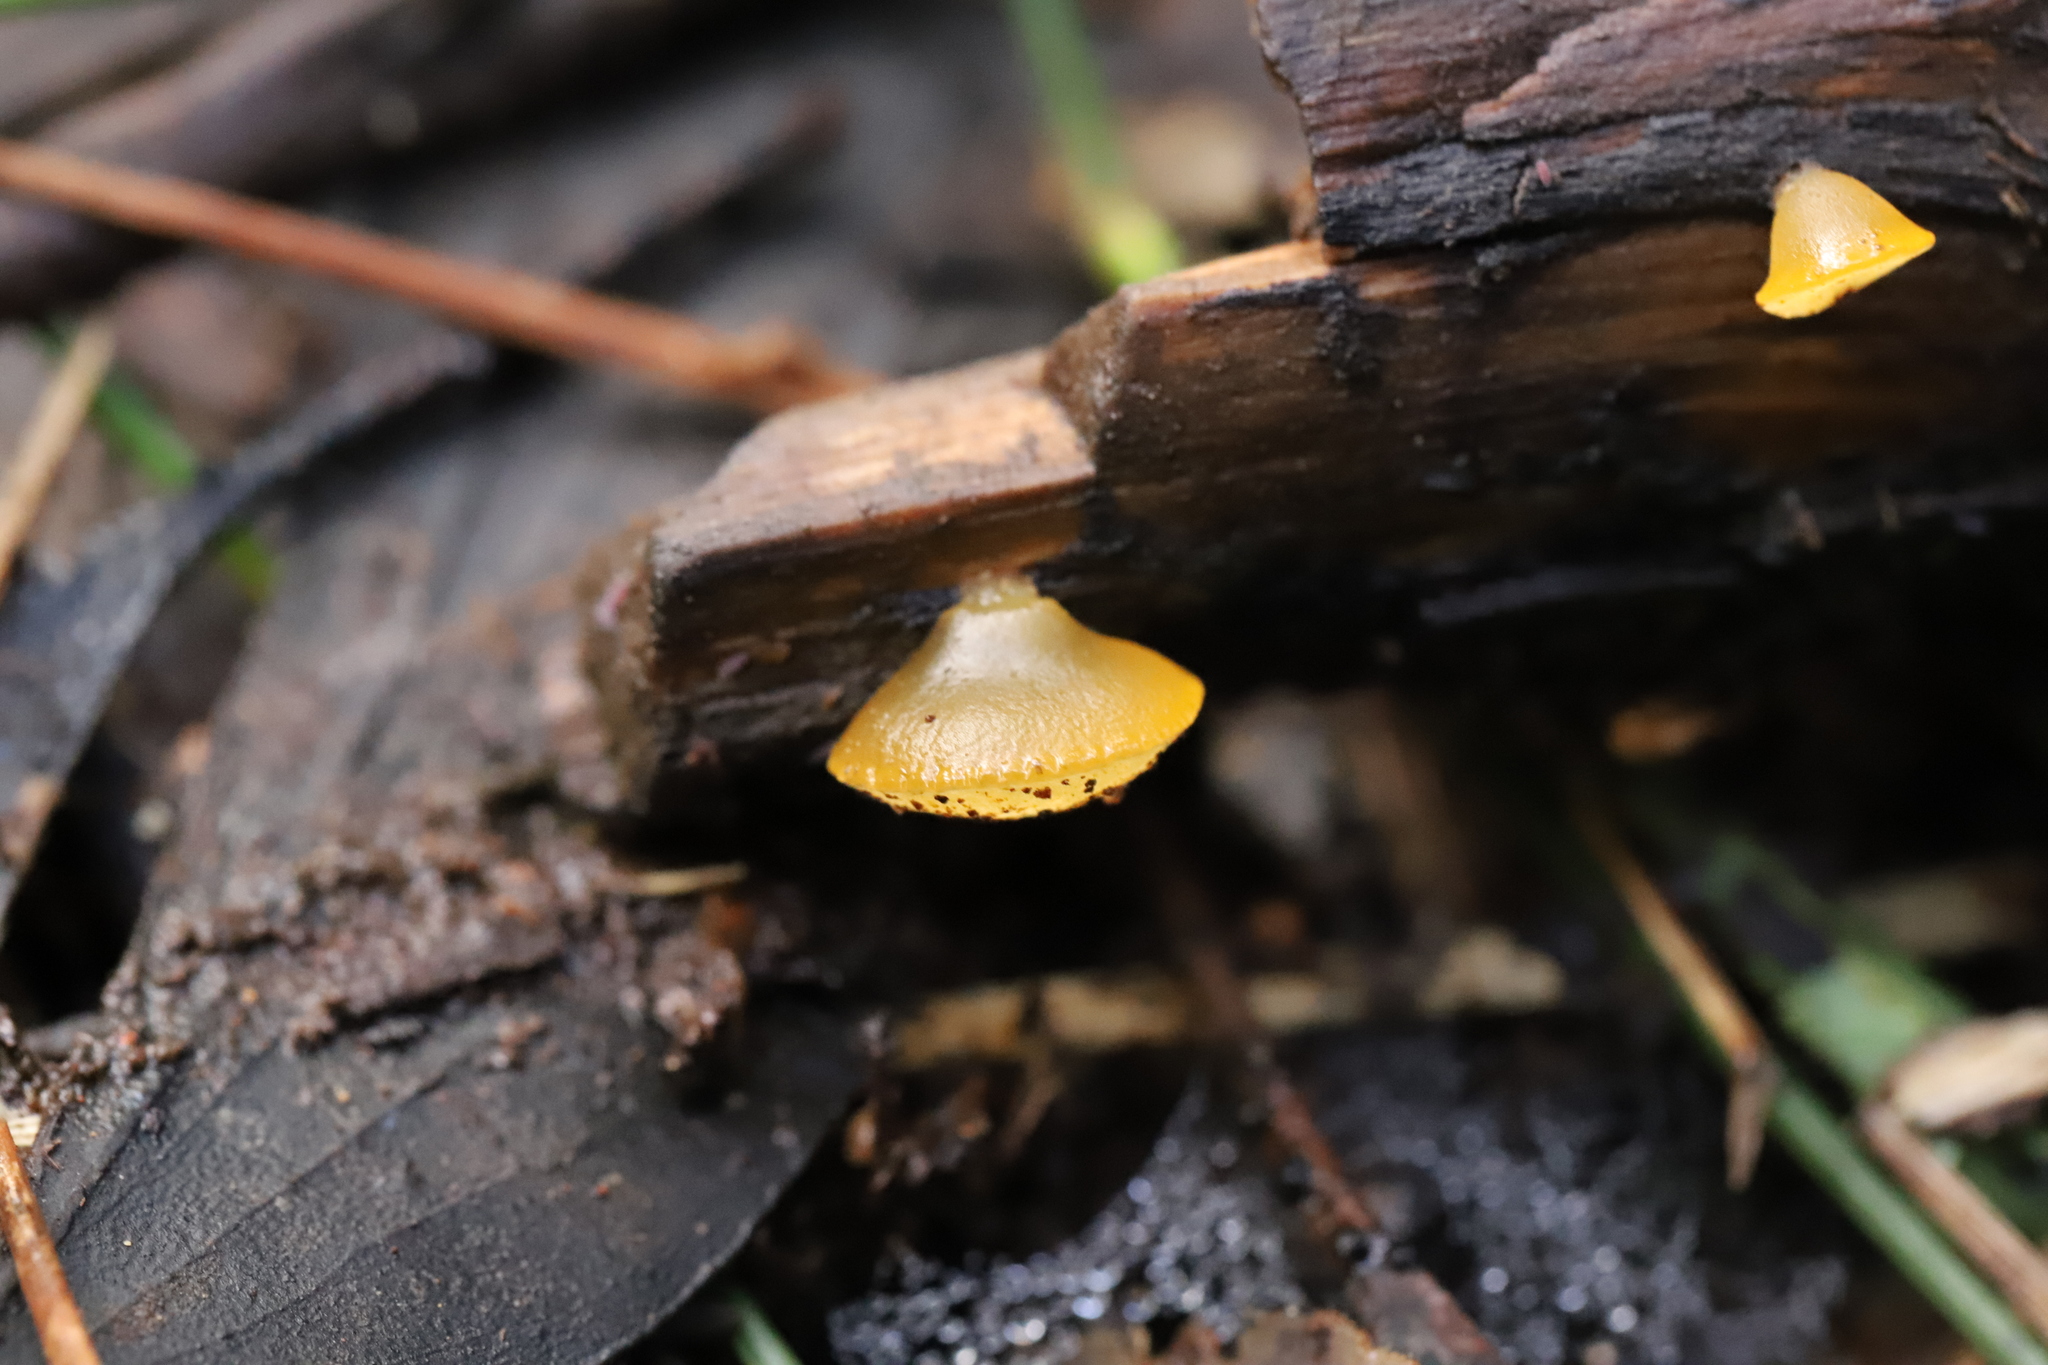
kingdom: Fungi
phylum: Basidiomycota
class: Dacrymycetes
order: Dacrymycetales
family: Dacrymycetaceae
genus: Heterotextus
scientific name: Heterotextus miltinus
